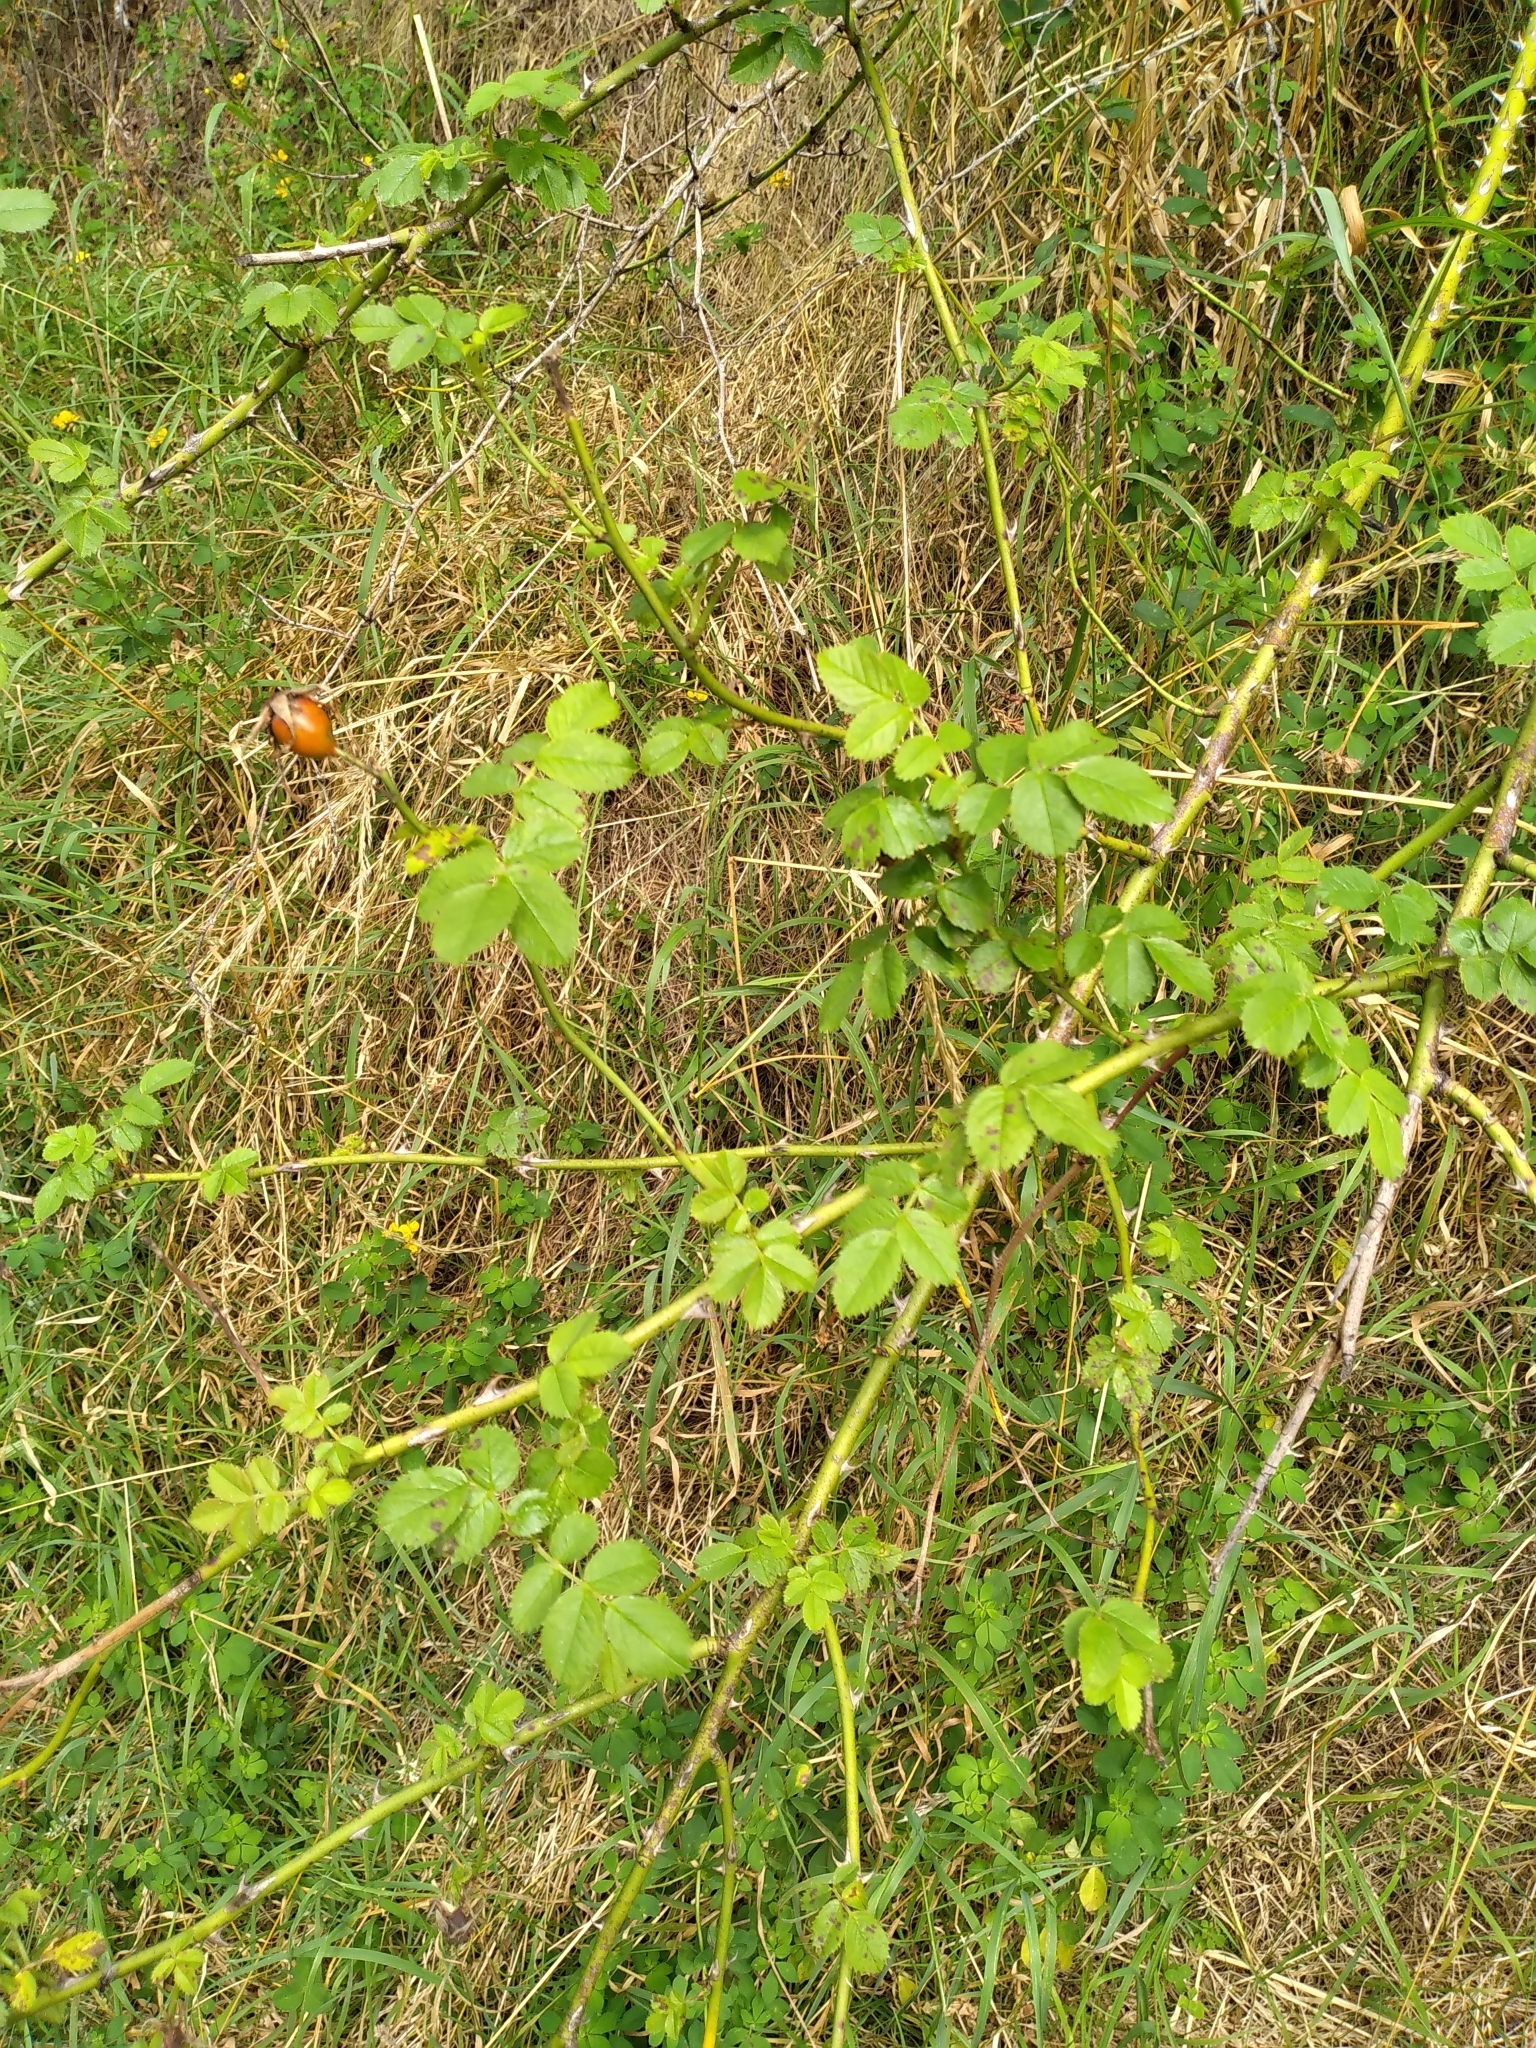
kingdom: Plantae
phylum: Tracheophyta
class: Magnoliopsida
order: Rosales
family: Rosaceae
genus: Rosa
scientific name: Rosa rubiginosa
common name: Sweet-briar
